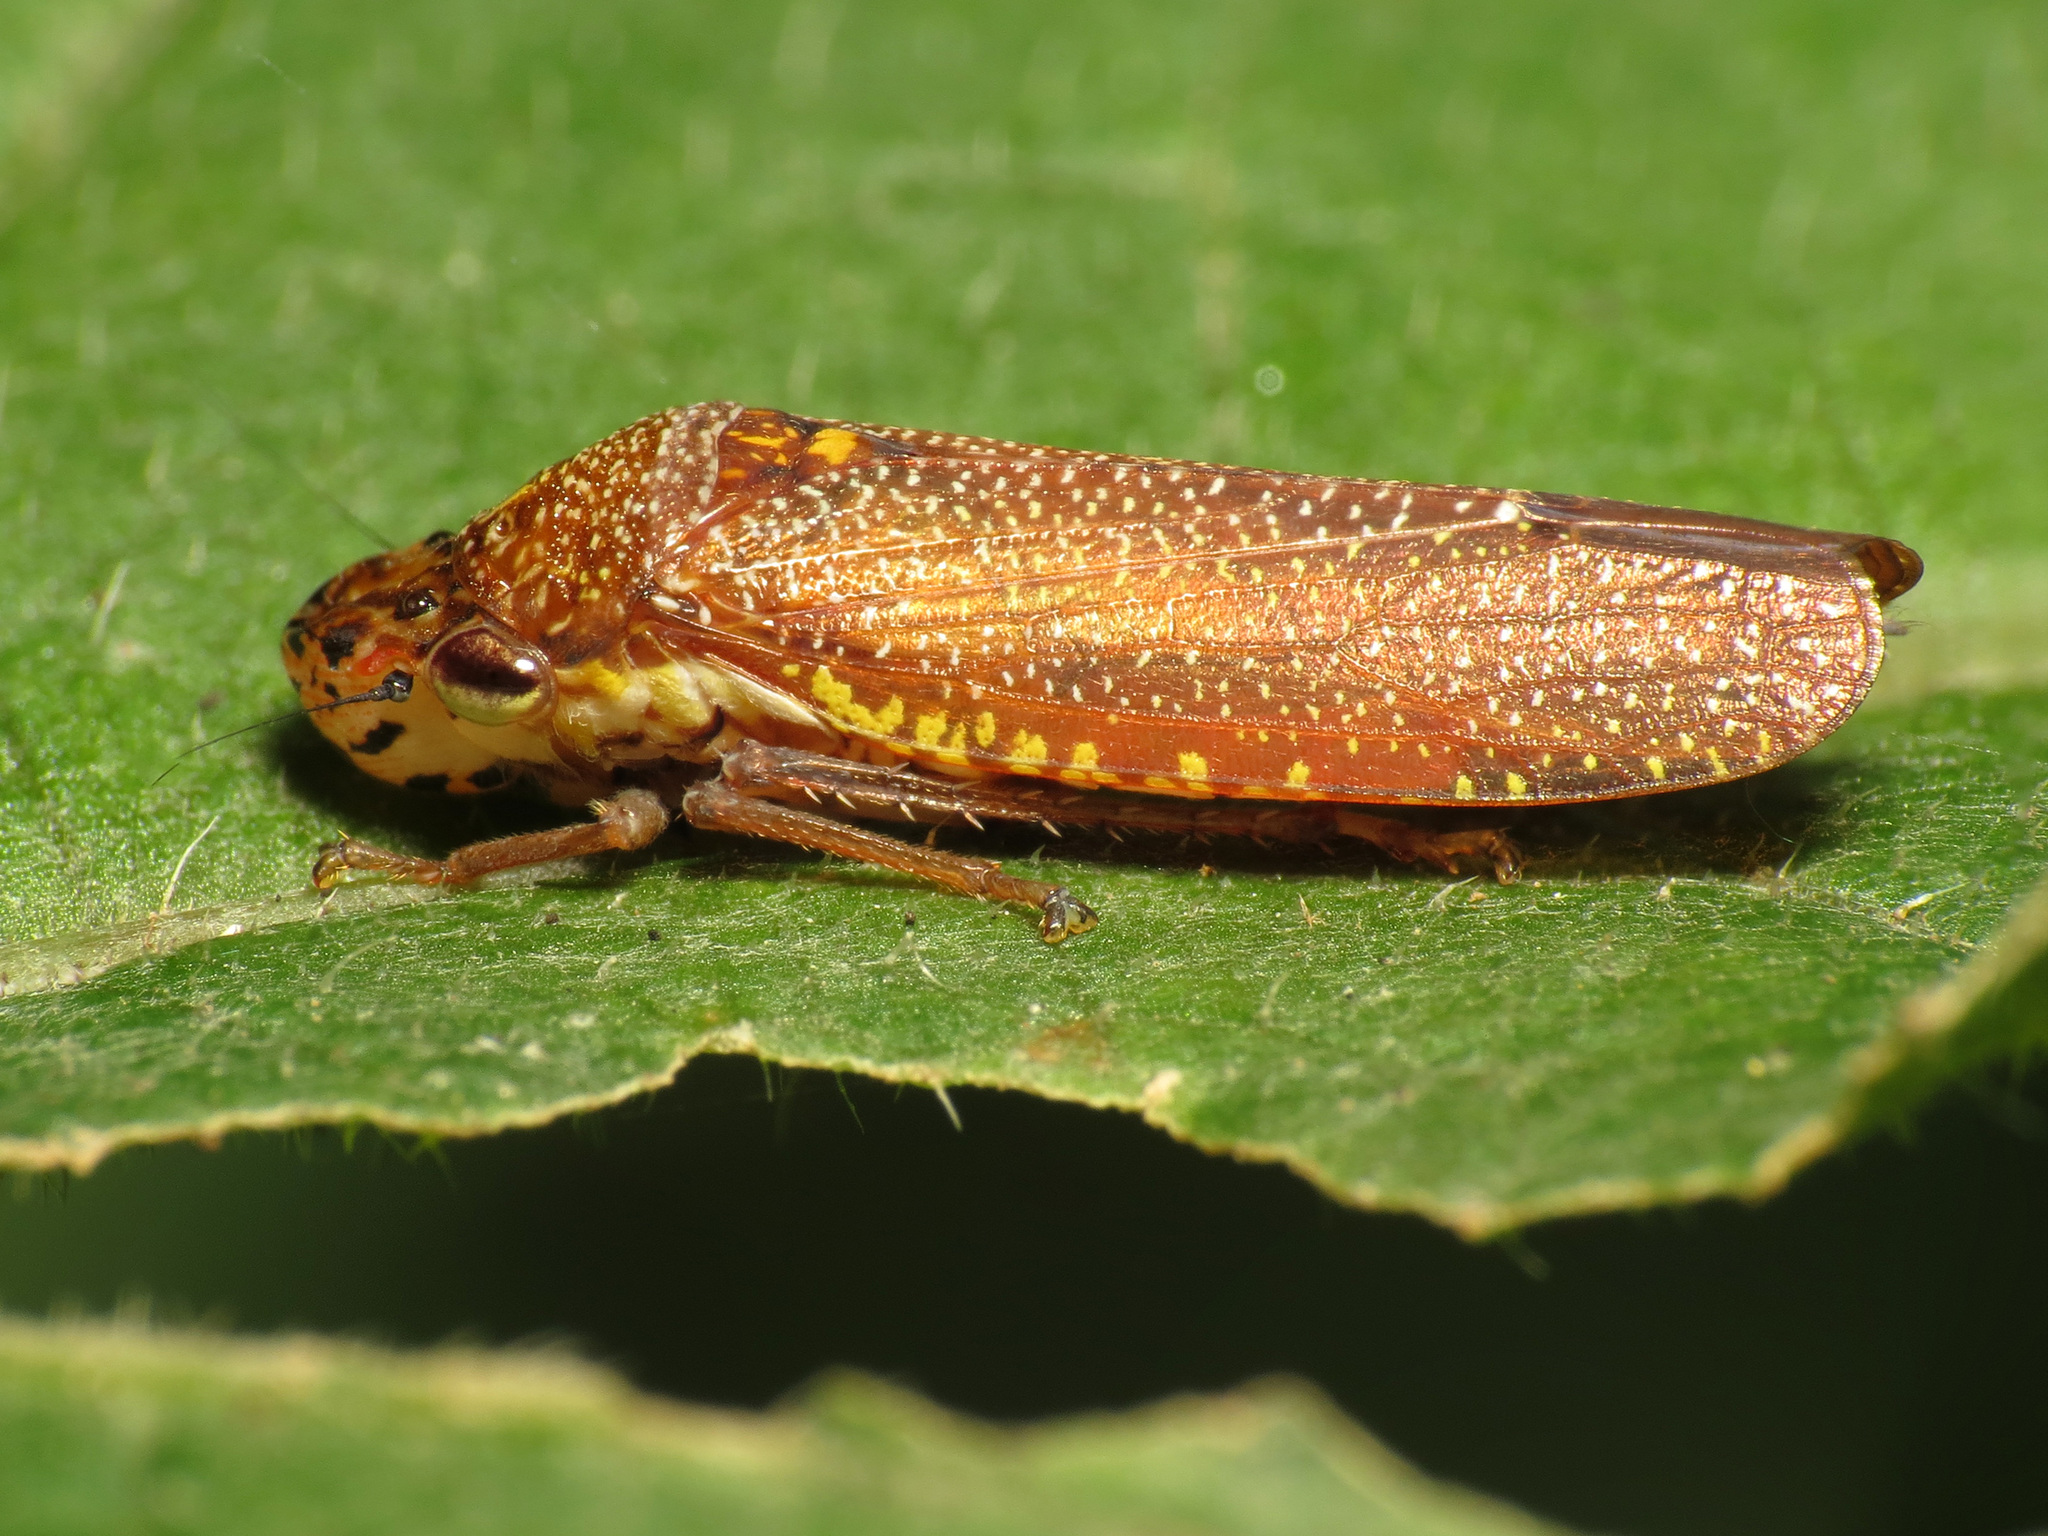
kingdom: Animalia
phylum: Arthropoda
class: Insecta
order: Hemiptera
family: Cicadellidae
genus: Paraulacizes
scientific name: Paraulacizes irrorata
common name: Speckled sharpshooter
